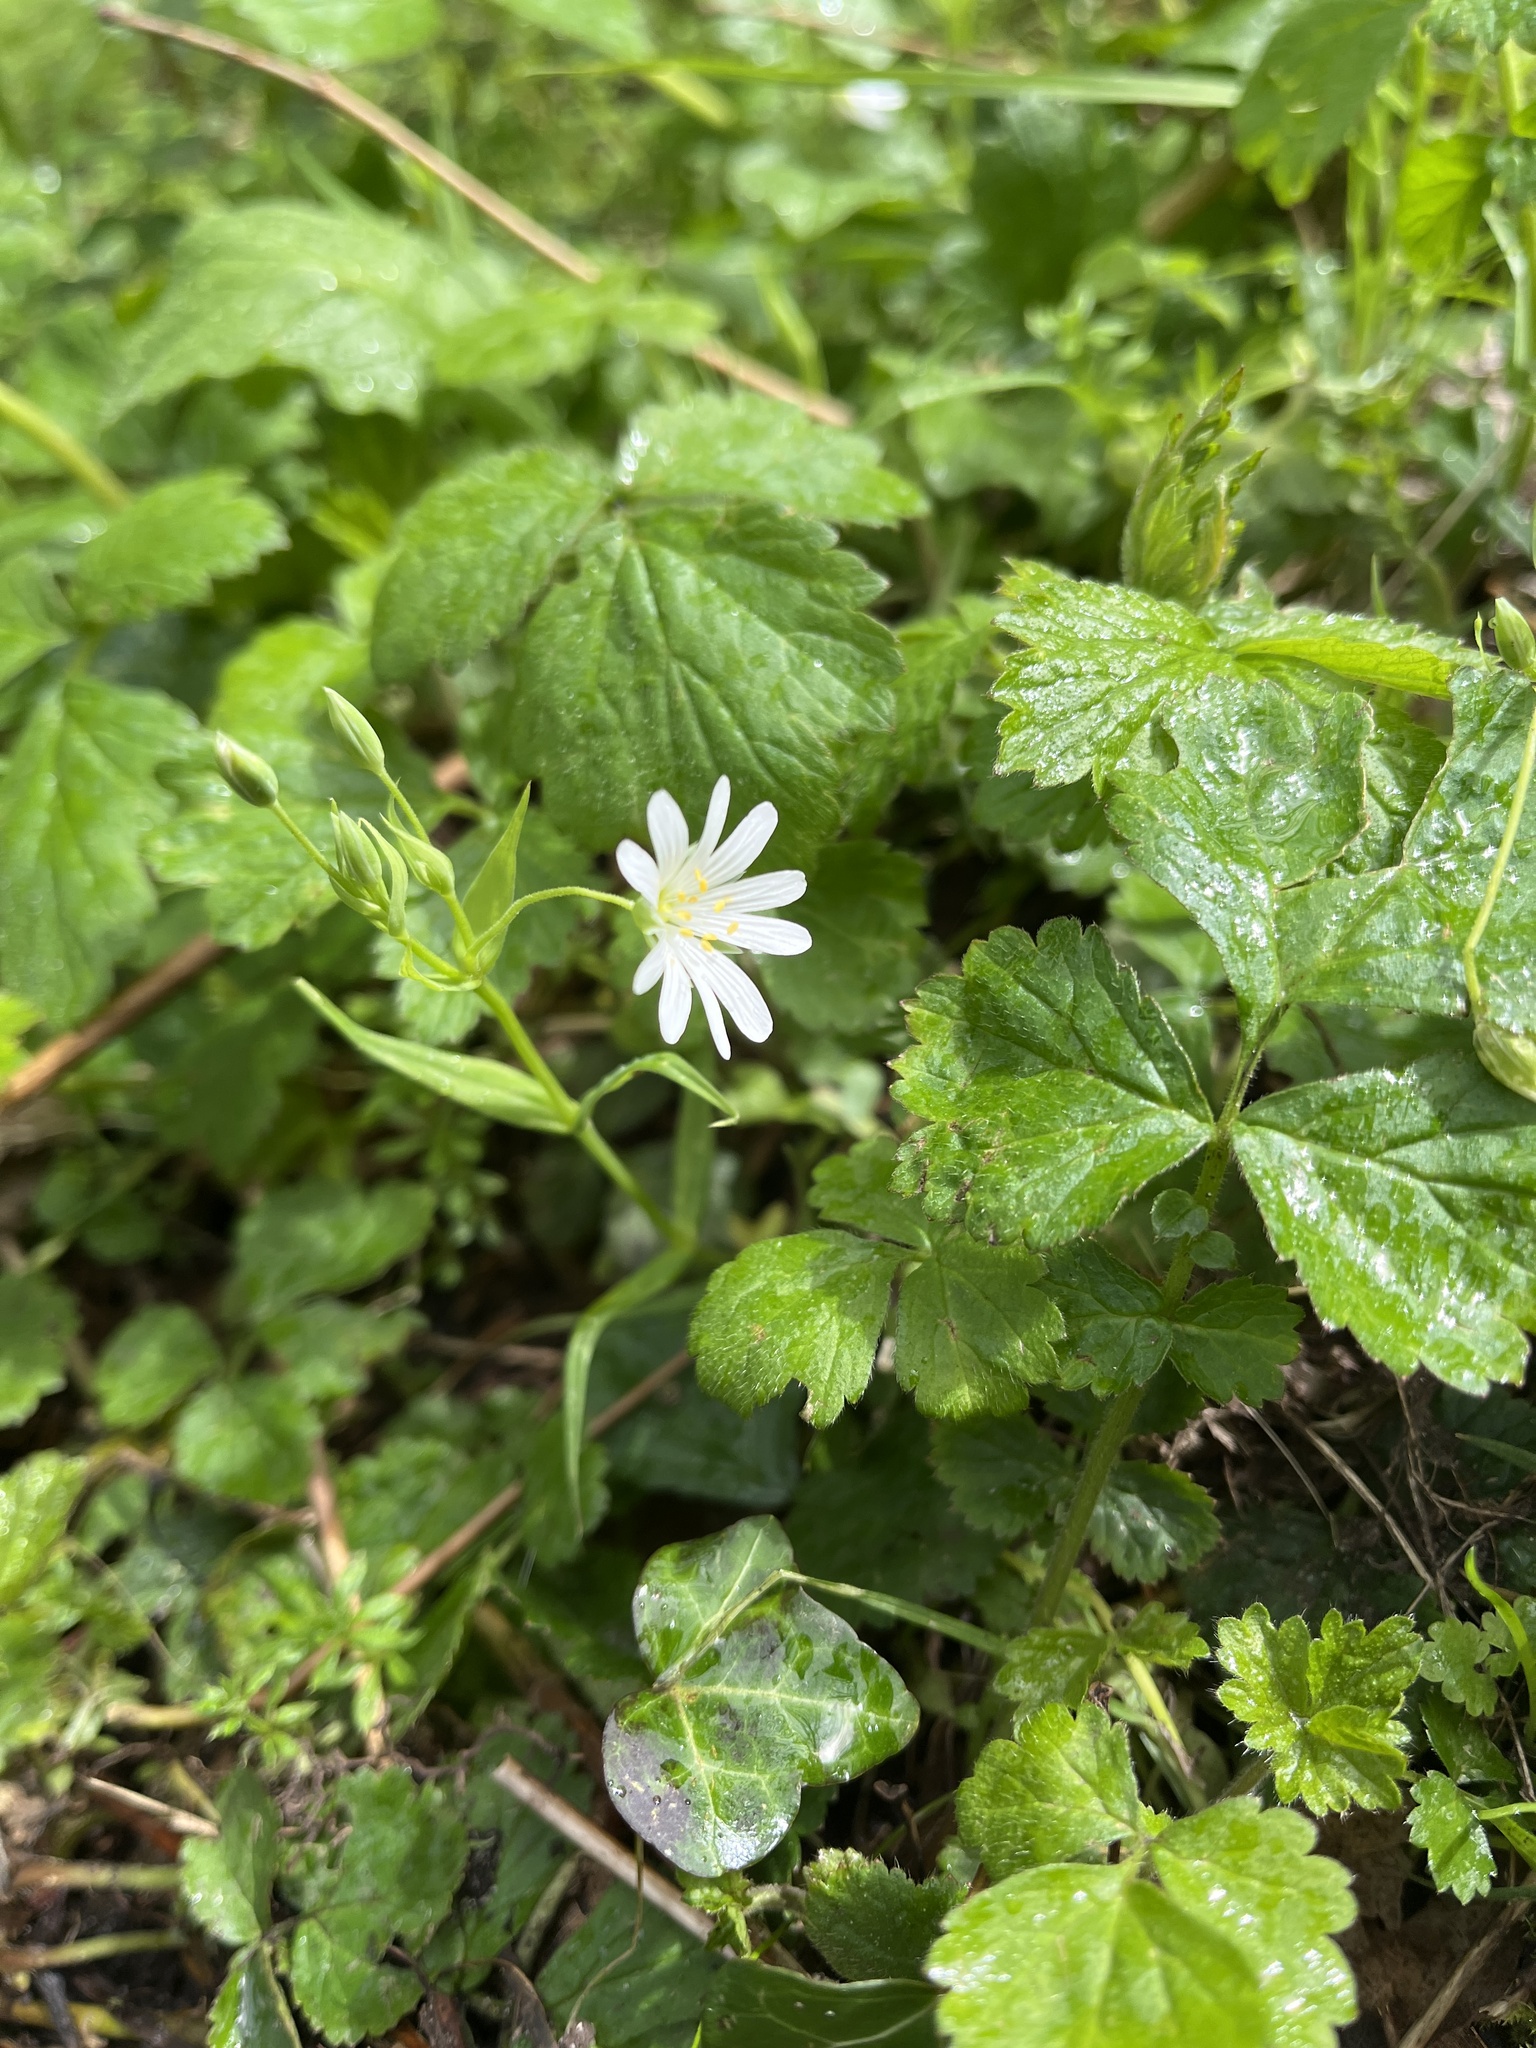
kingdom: Plantae
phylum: Tracheophyta
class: Magnoliopsida
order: Caryophyllales
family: Caryophyllaceae
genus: Rabelera
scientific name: Rabelera holostea
